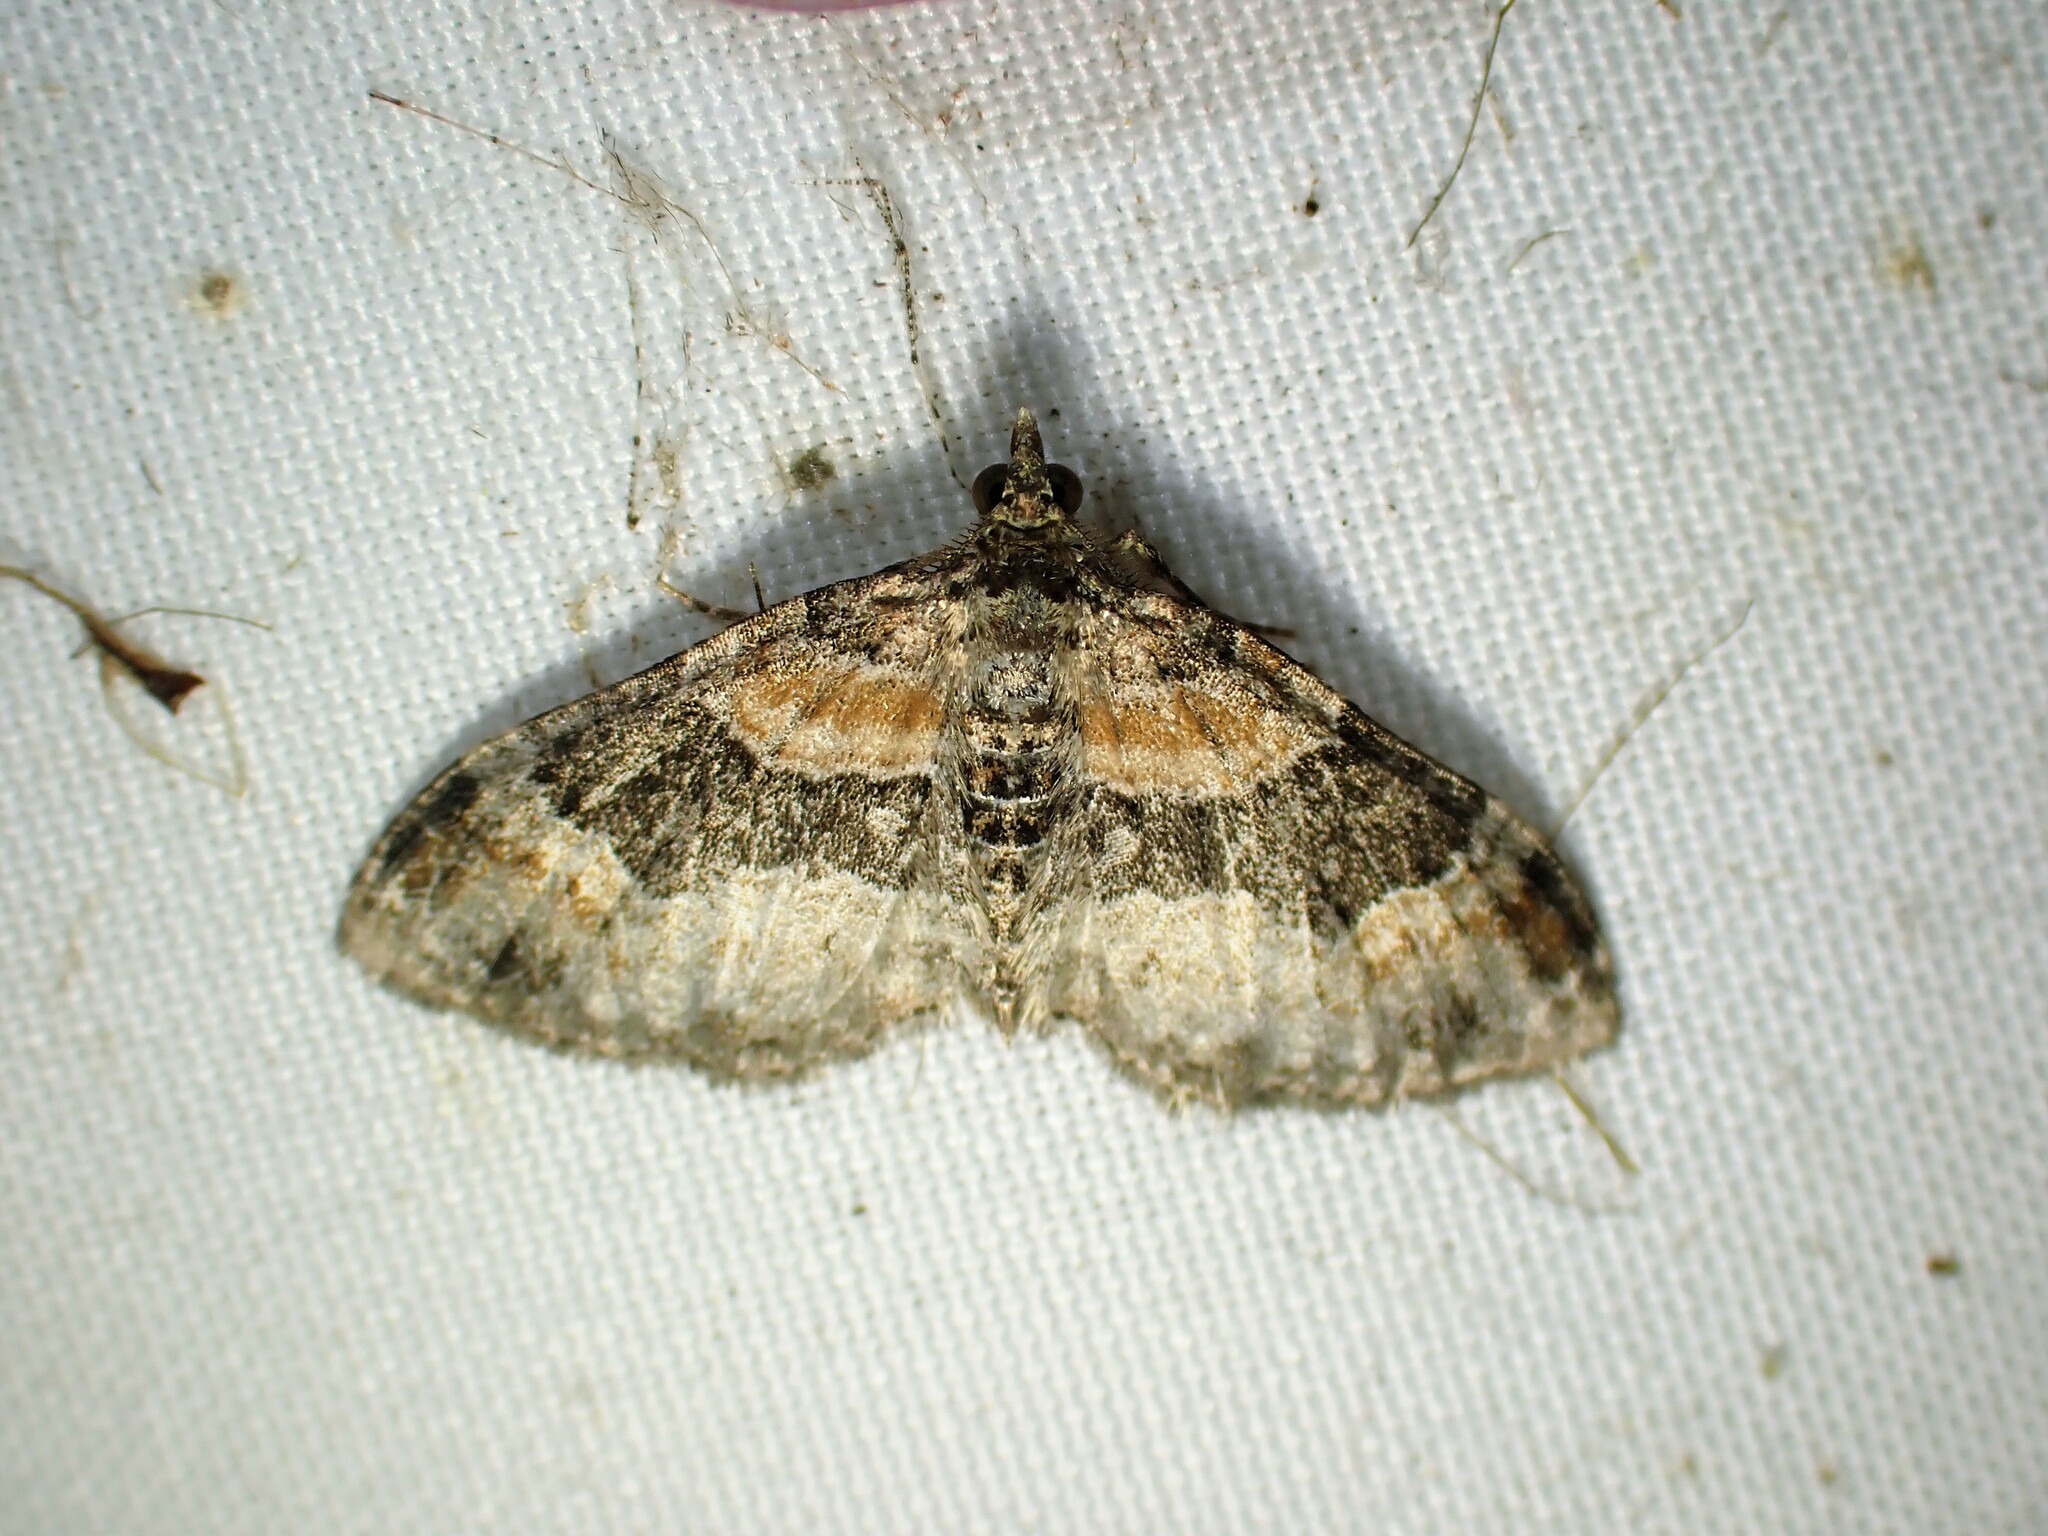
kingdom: Animalia
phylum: Arthropoda
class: Insecta
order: Lepidoptera
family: Geometridae
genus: Xanthorhoe
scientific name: Xanthorhoe ferrugata
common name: Dark-barred twin-spot carpet
